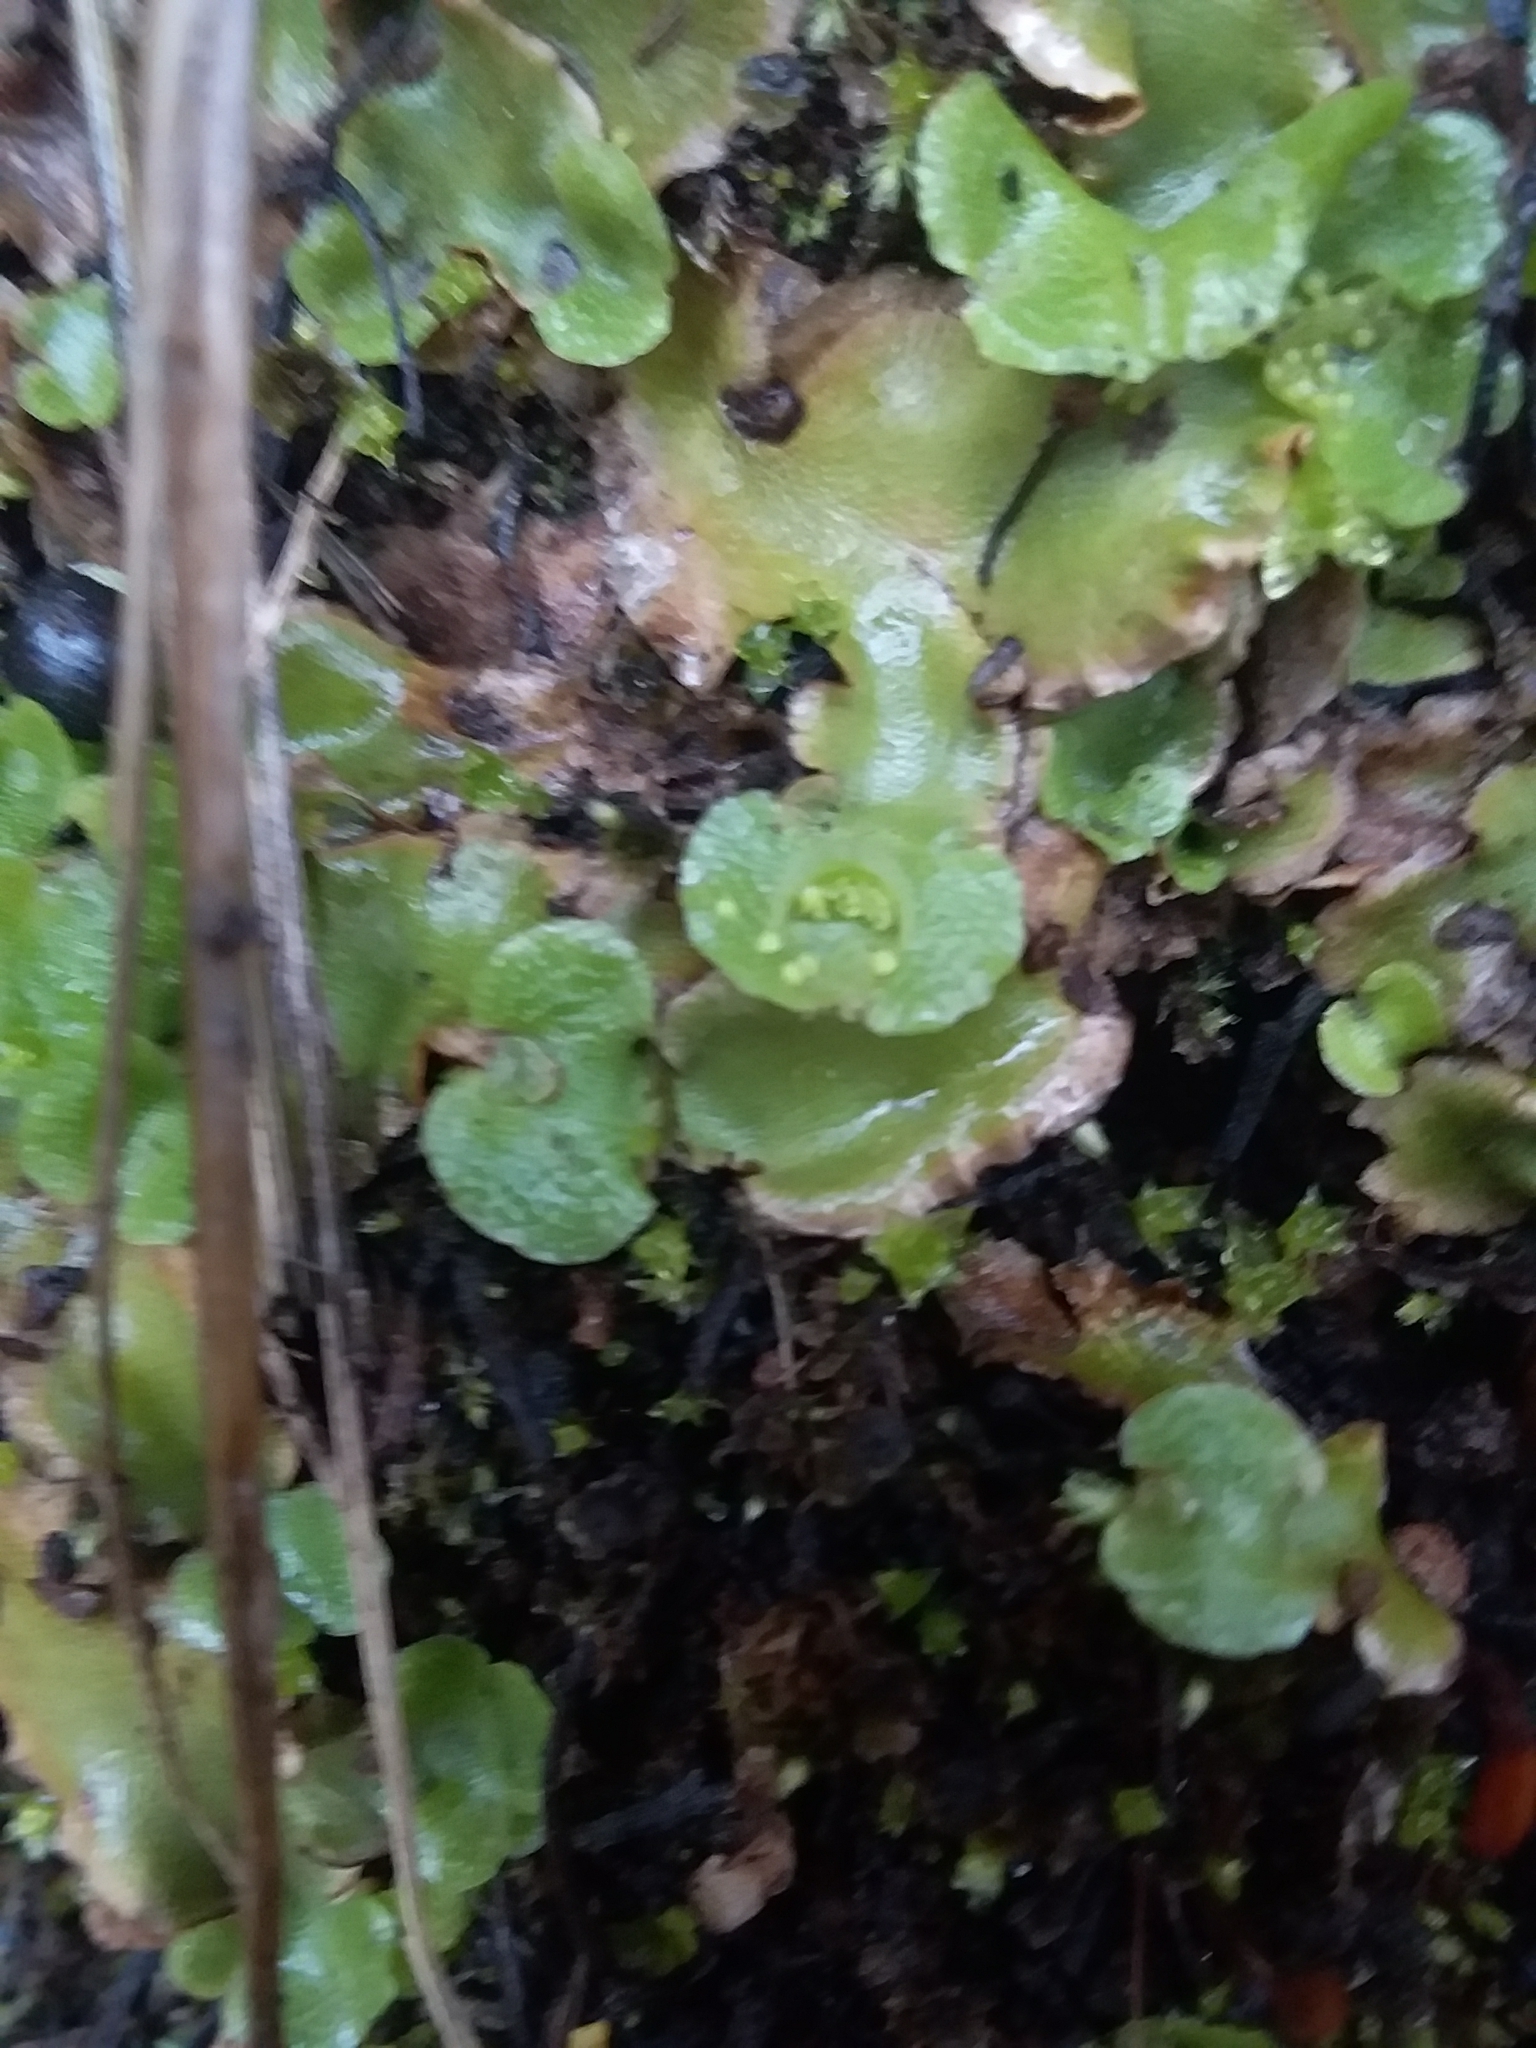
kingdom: Plantae
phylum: Marchantiophyta
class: Marchantiopsida
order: Lunulariales
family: Lunulariaceae
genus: Lunularia
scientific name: Lunularia cruciata
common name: Crescent-cup liverwort
